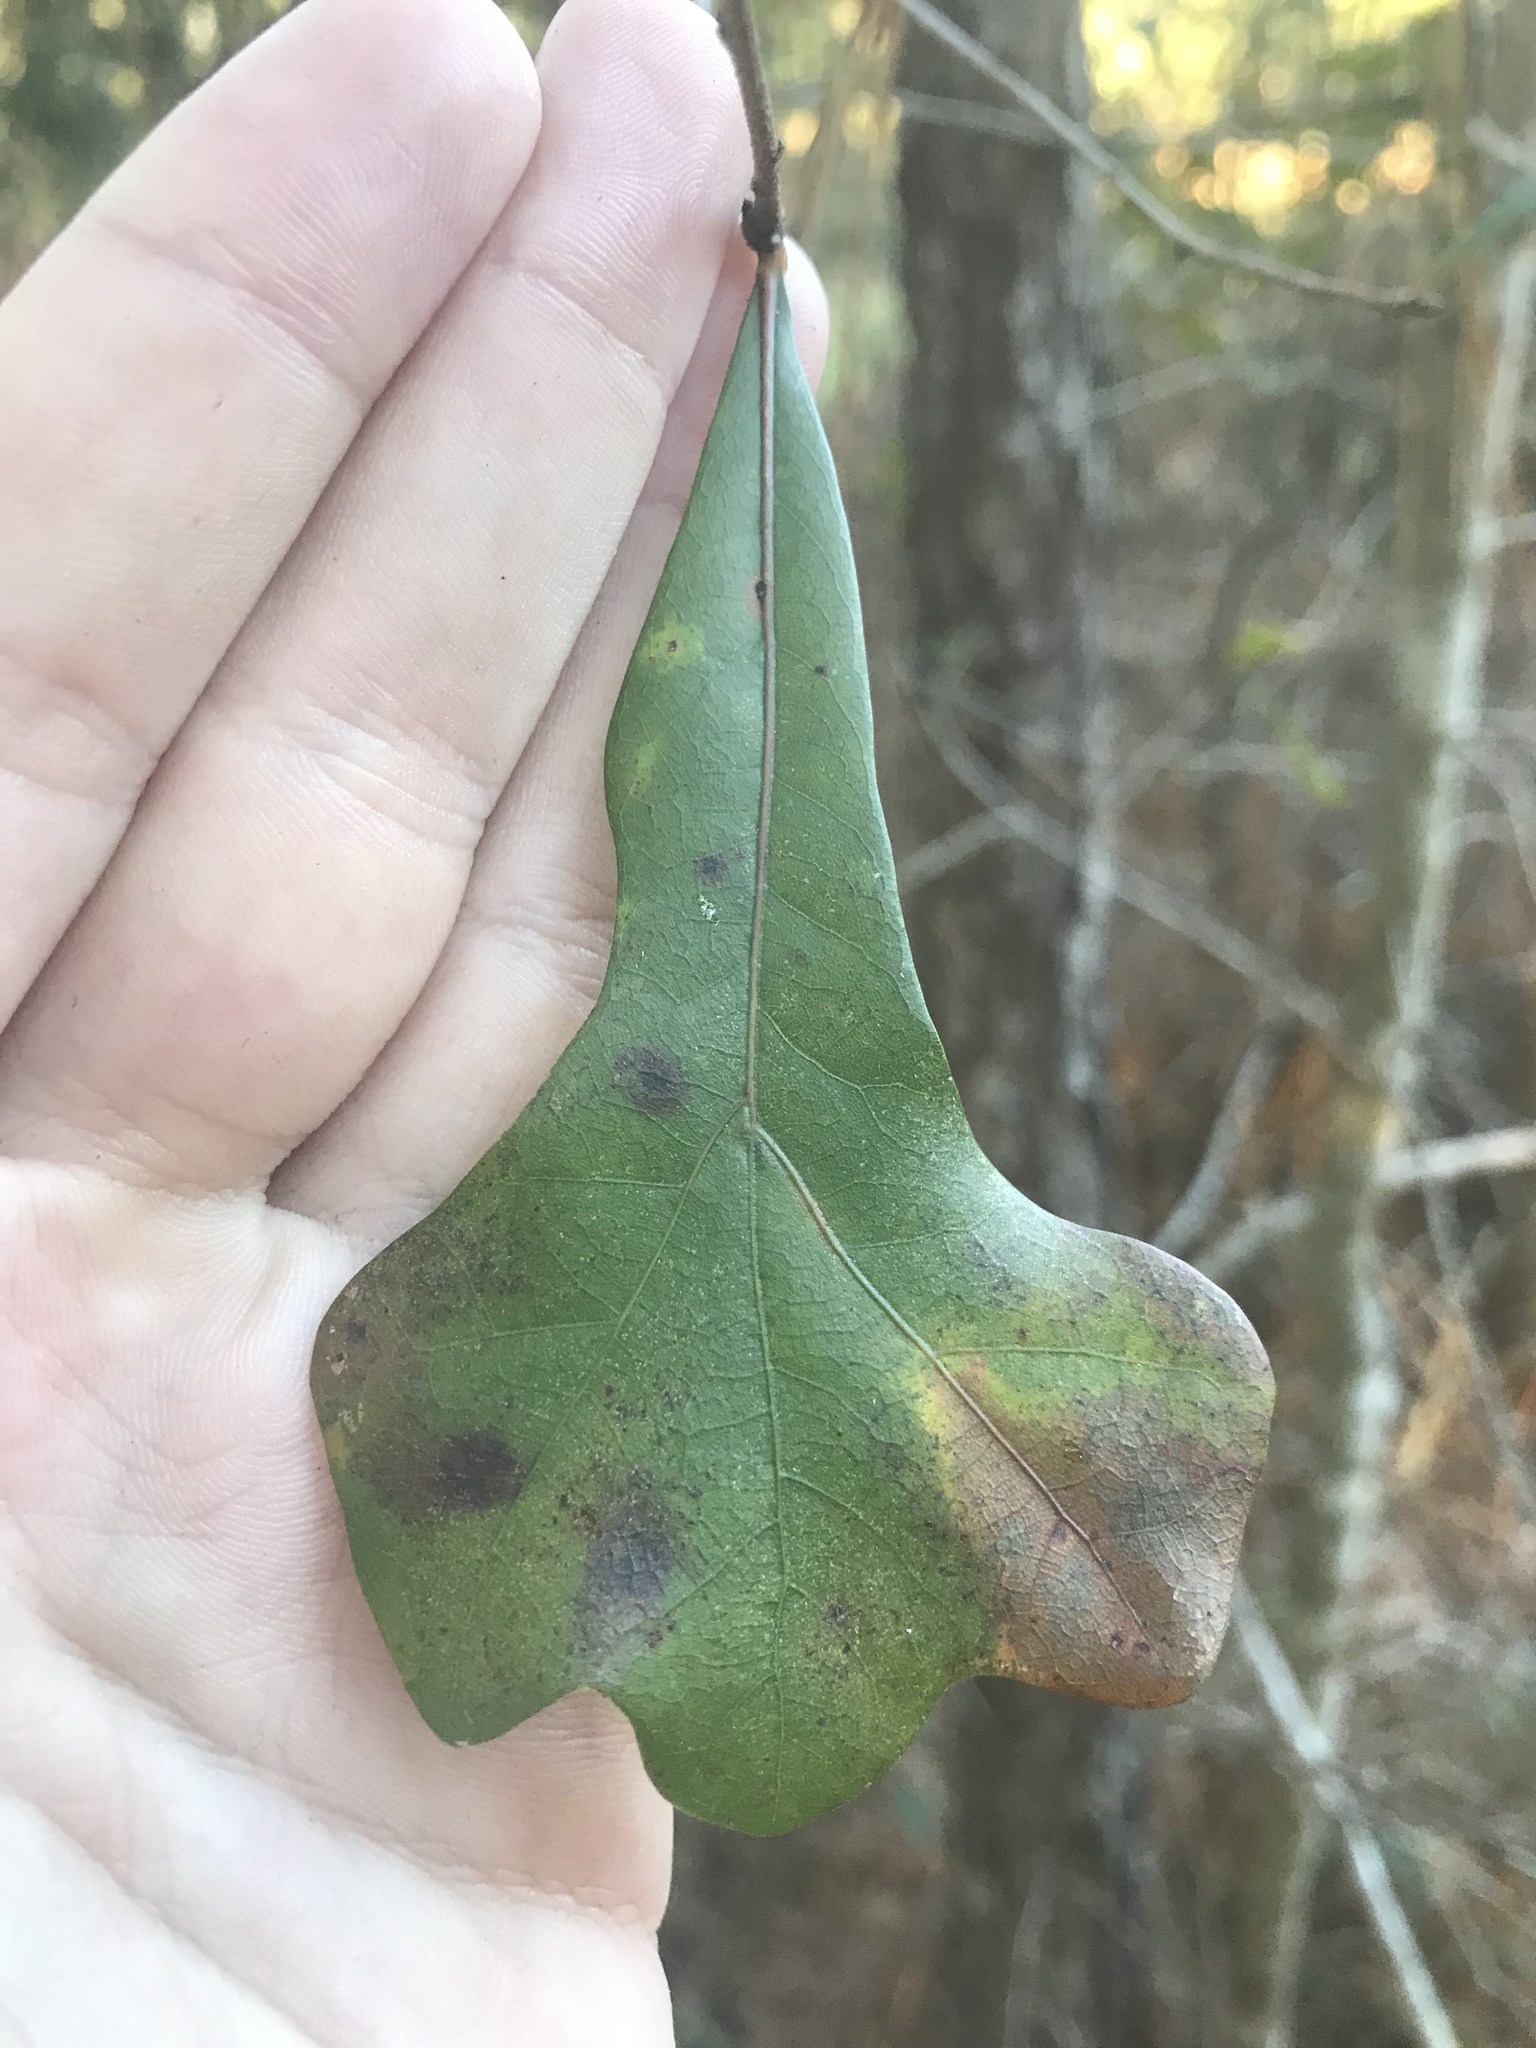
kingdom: Plantae
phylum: Tracheophyta
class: Magnoliopsida
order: Fagales
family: Fagaceae
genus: Quercus
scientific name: Quercus nigra
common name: Water oak
